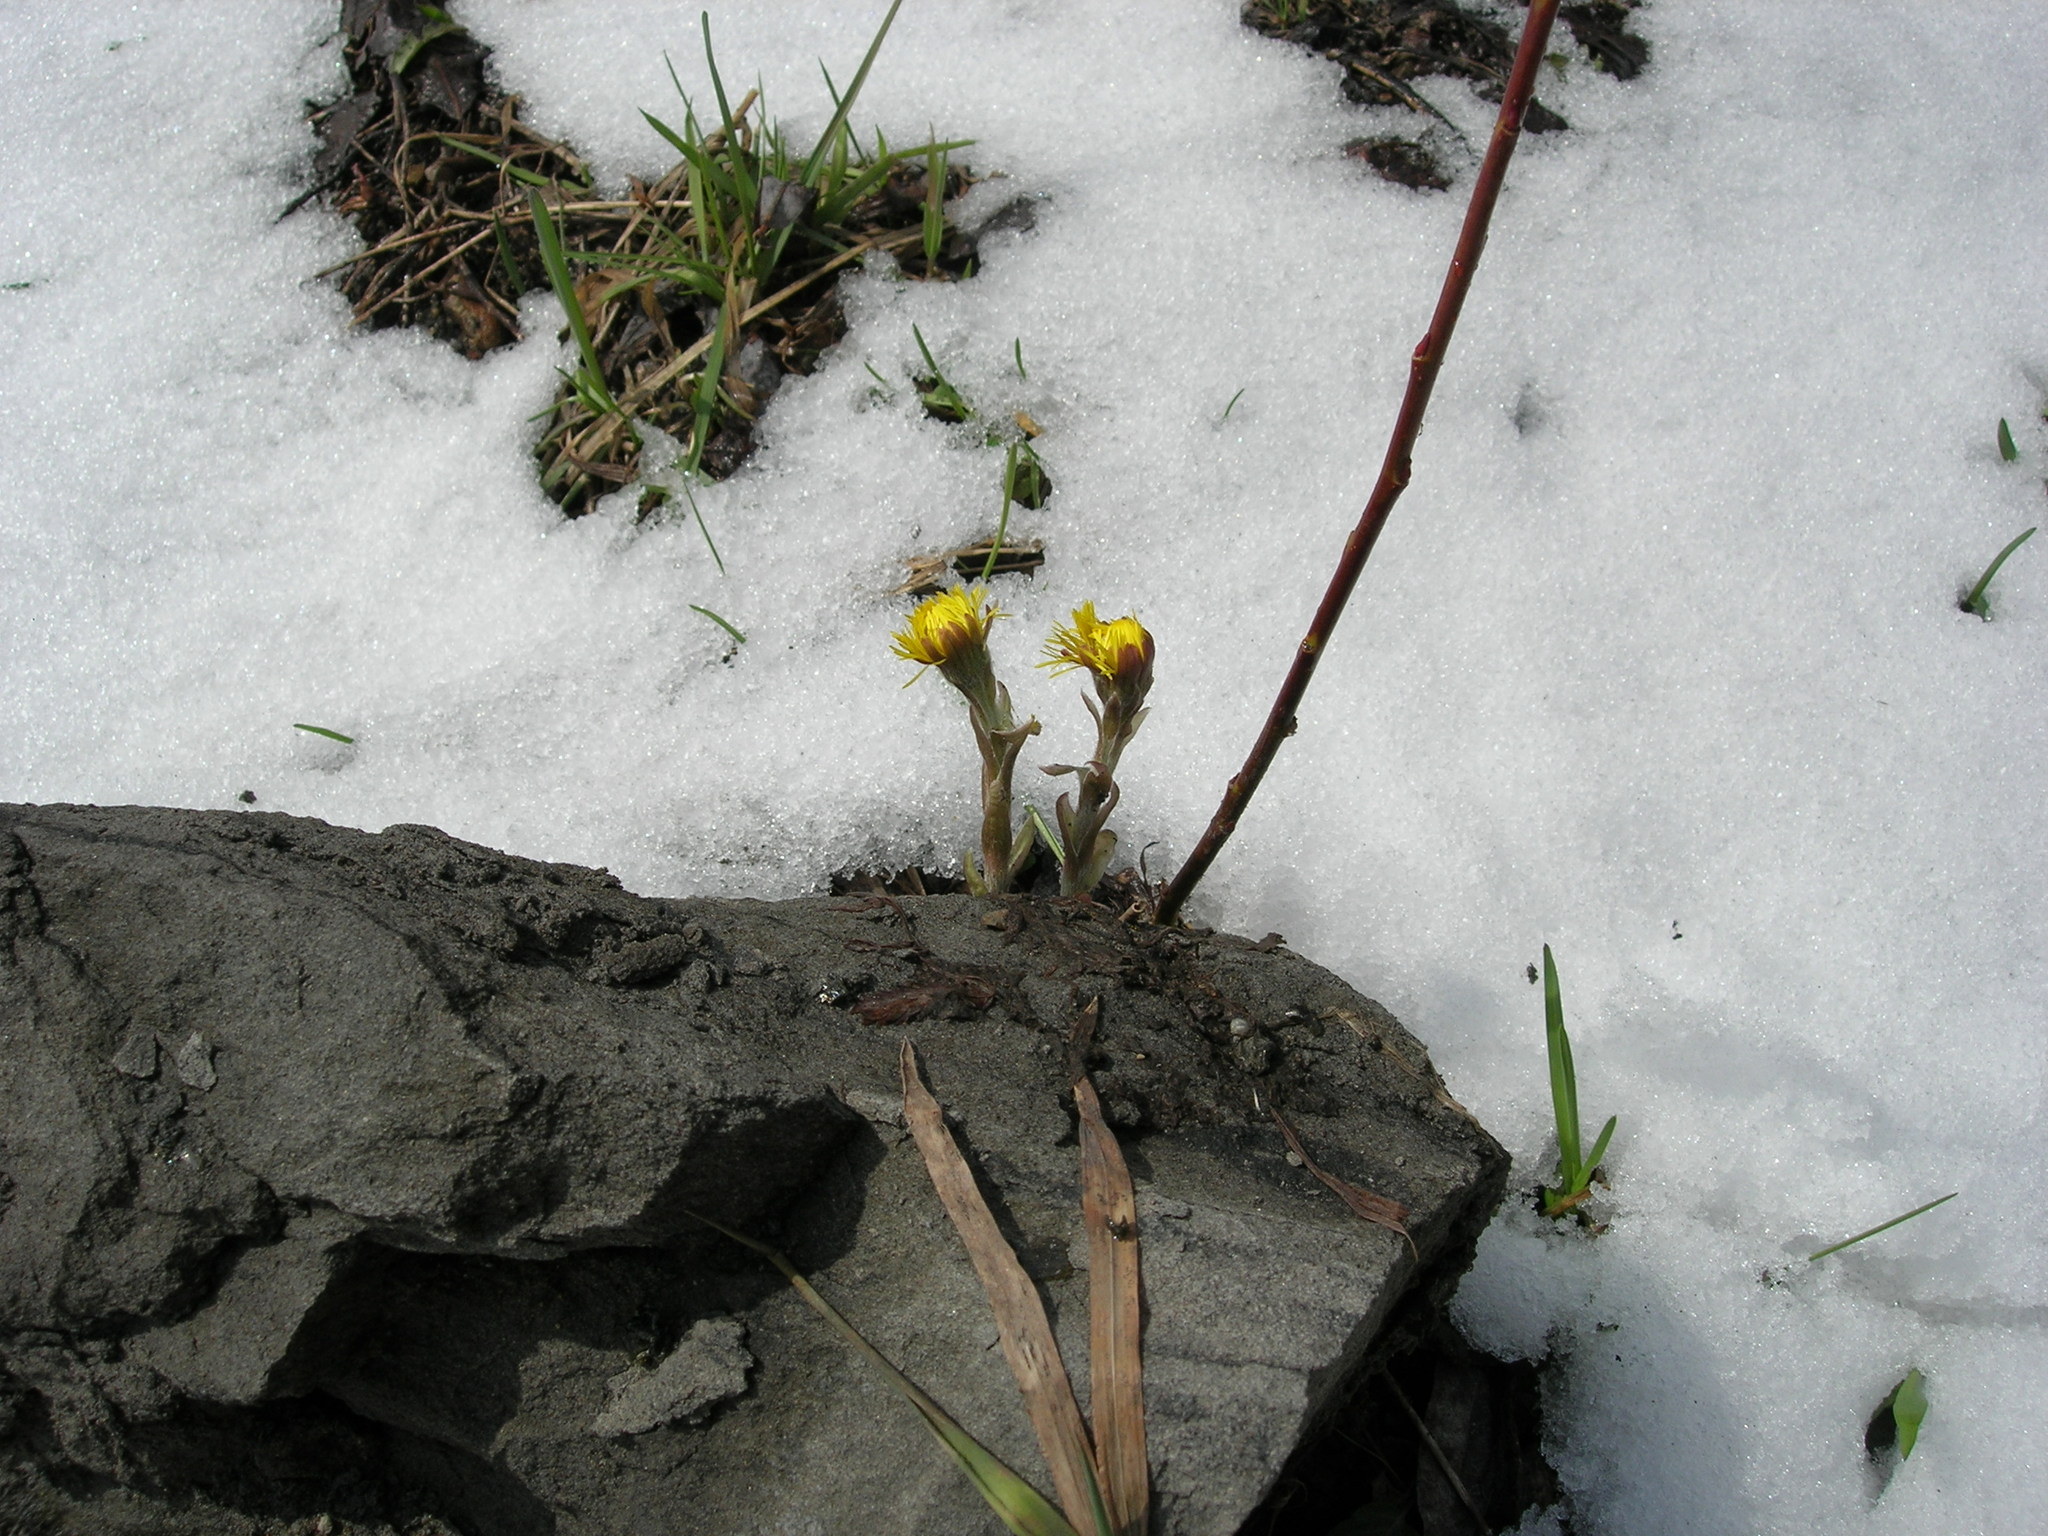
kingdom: Plantae
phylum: Tracheophyta
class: Magnoliopsida
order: Asterales
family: Asteraceae
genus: Tussilago
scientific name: Tussilago farfara
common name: Coltsfoot
